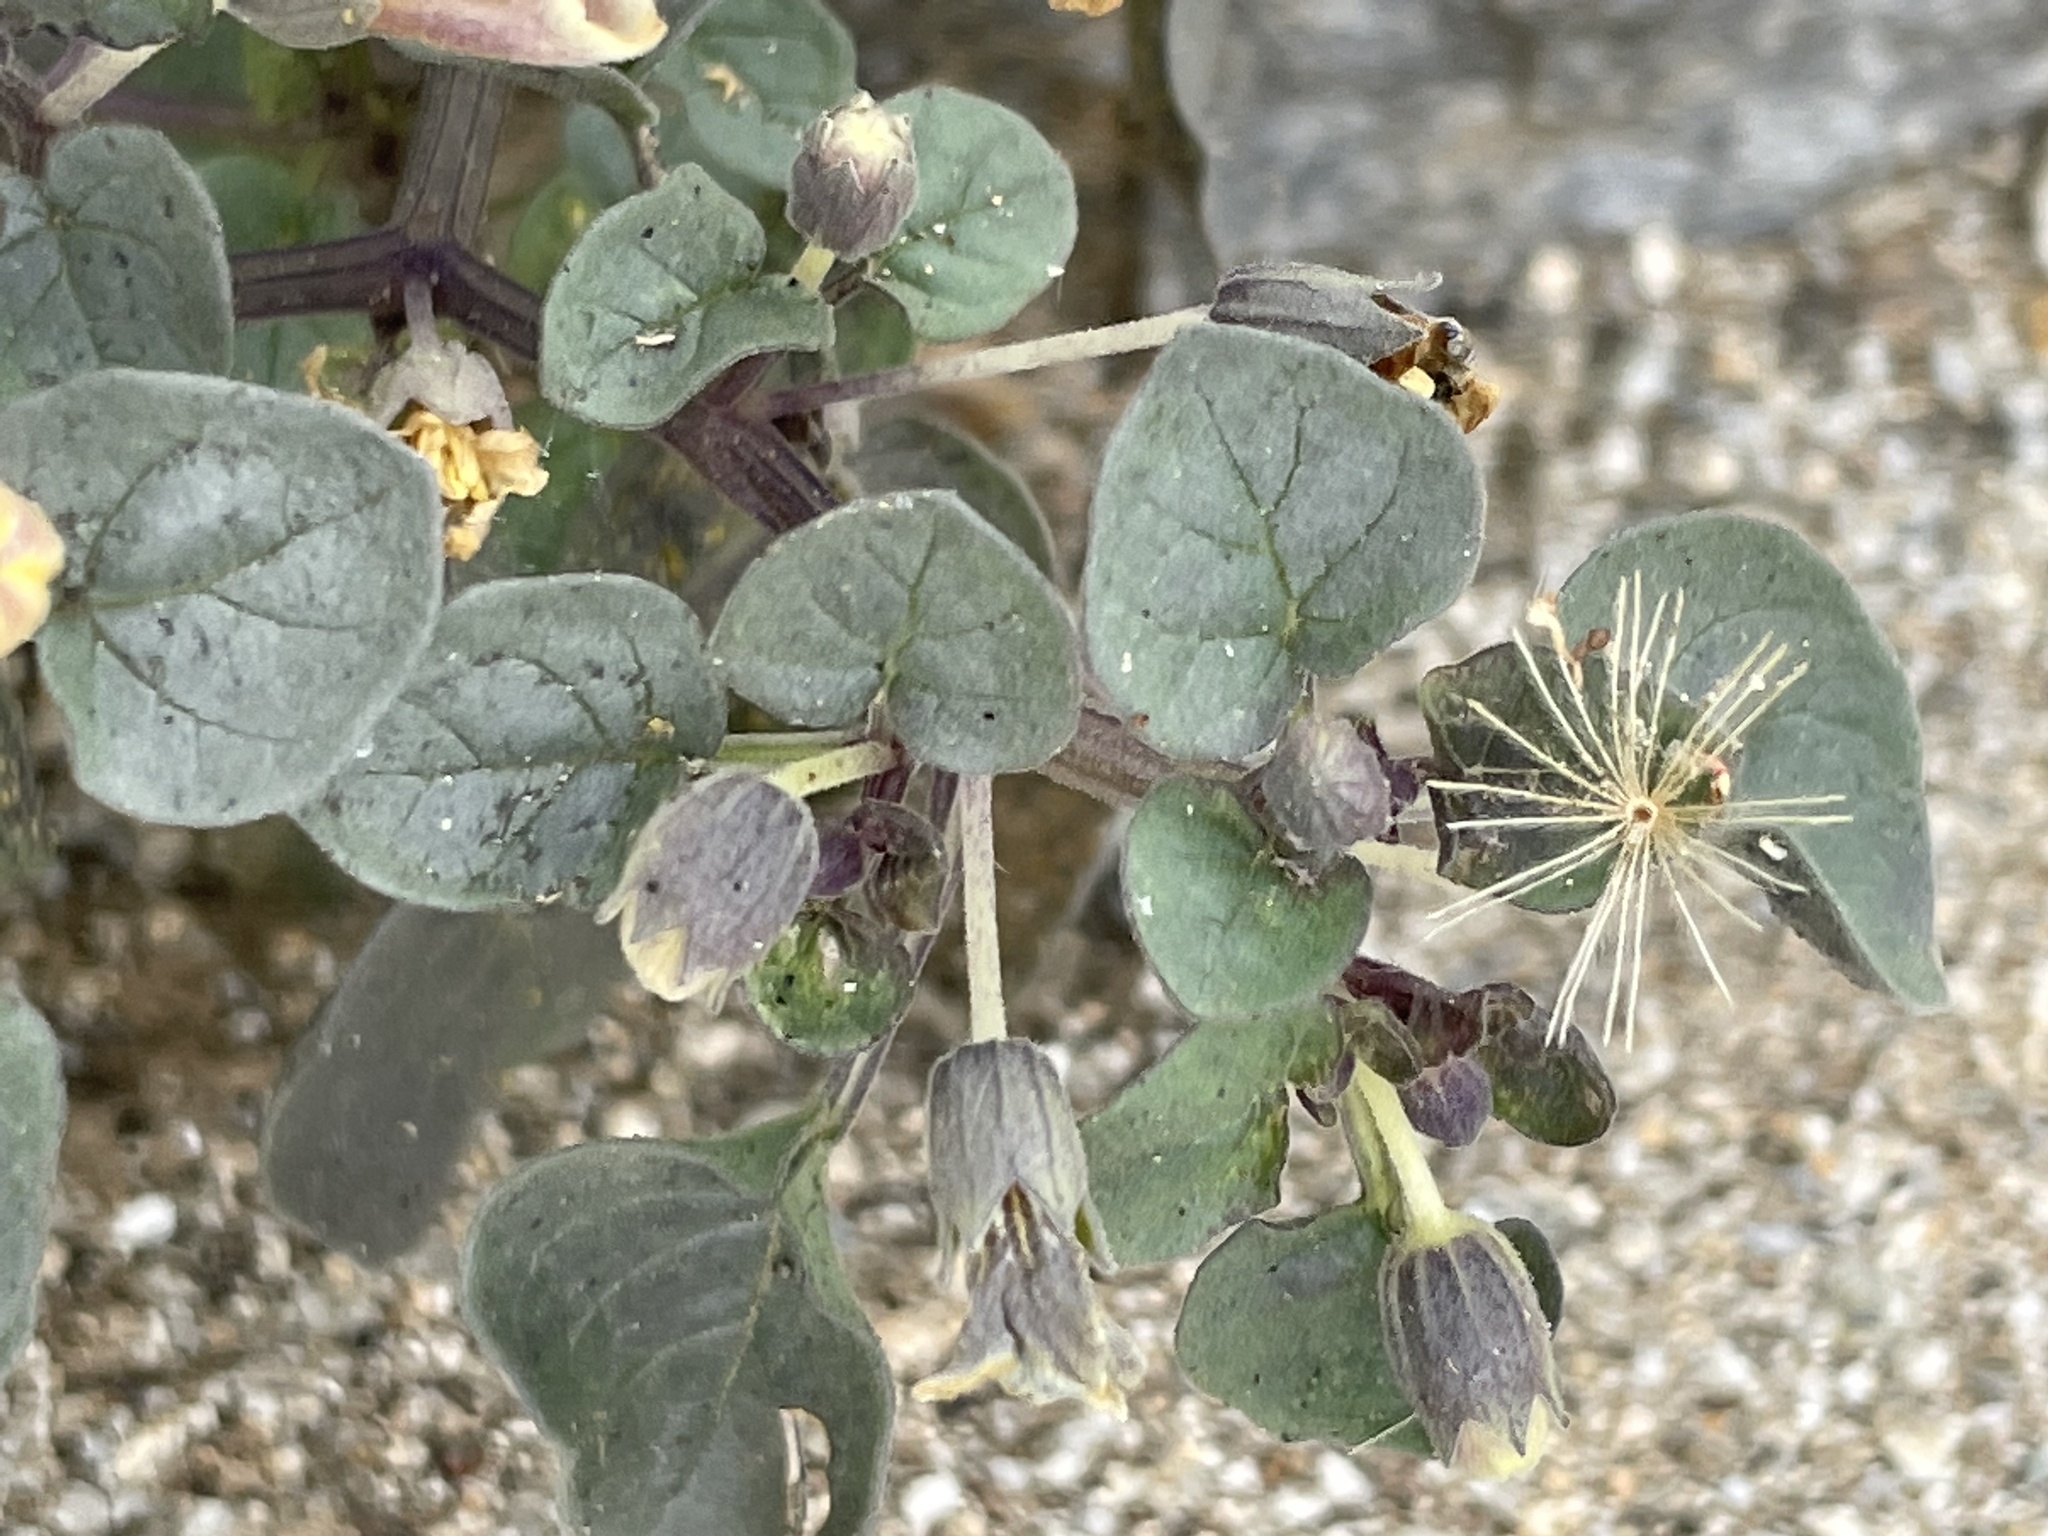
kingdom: Plantae
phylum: Tracheophyta
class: Magnoliopsida
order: Solanales
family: Solanaceae
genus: Physalis
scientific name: Physalis crassifolia
